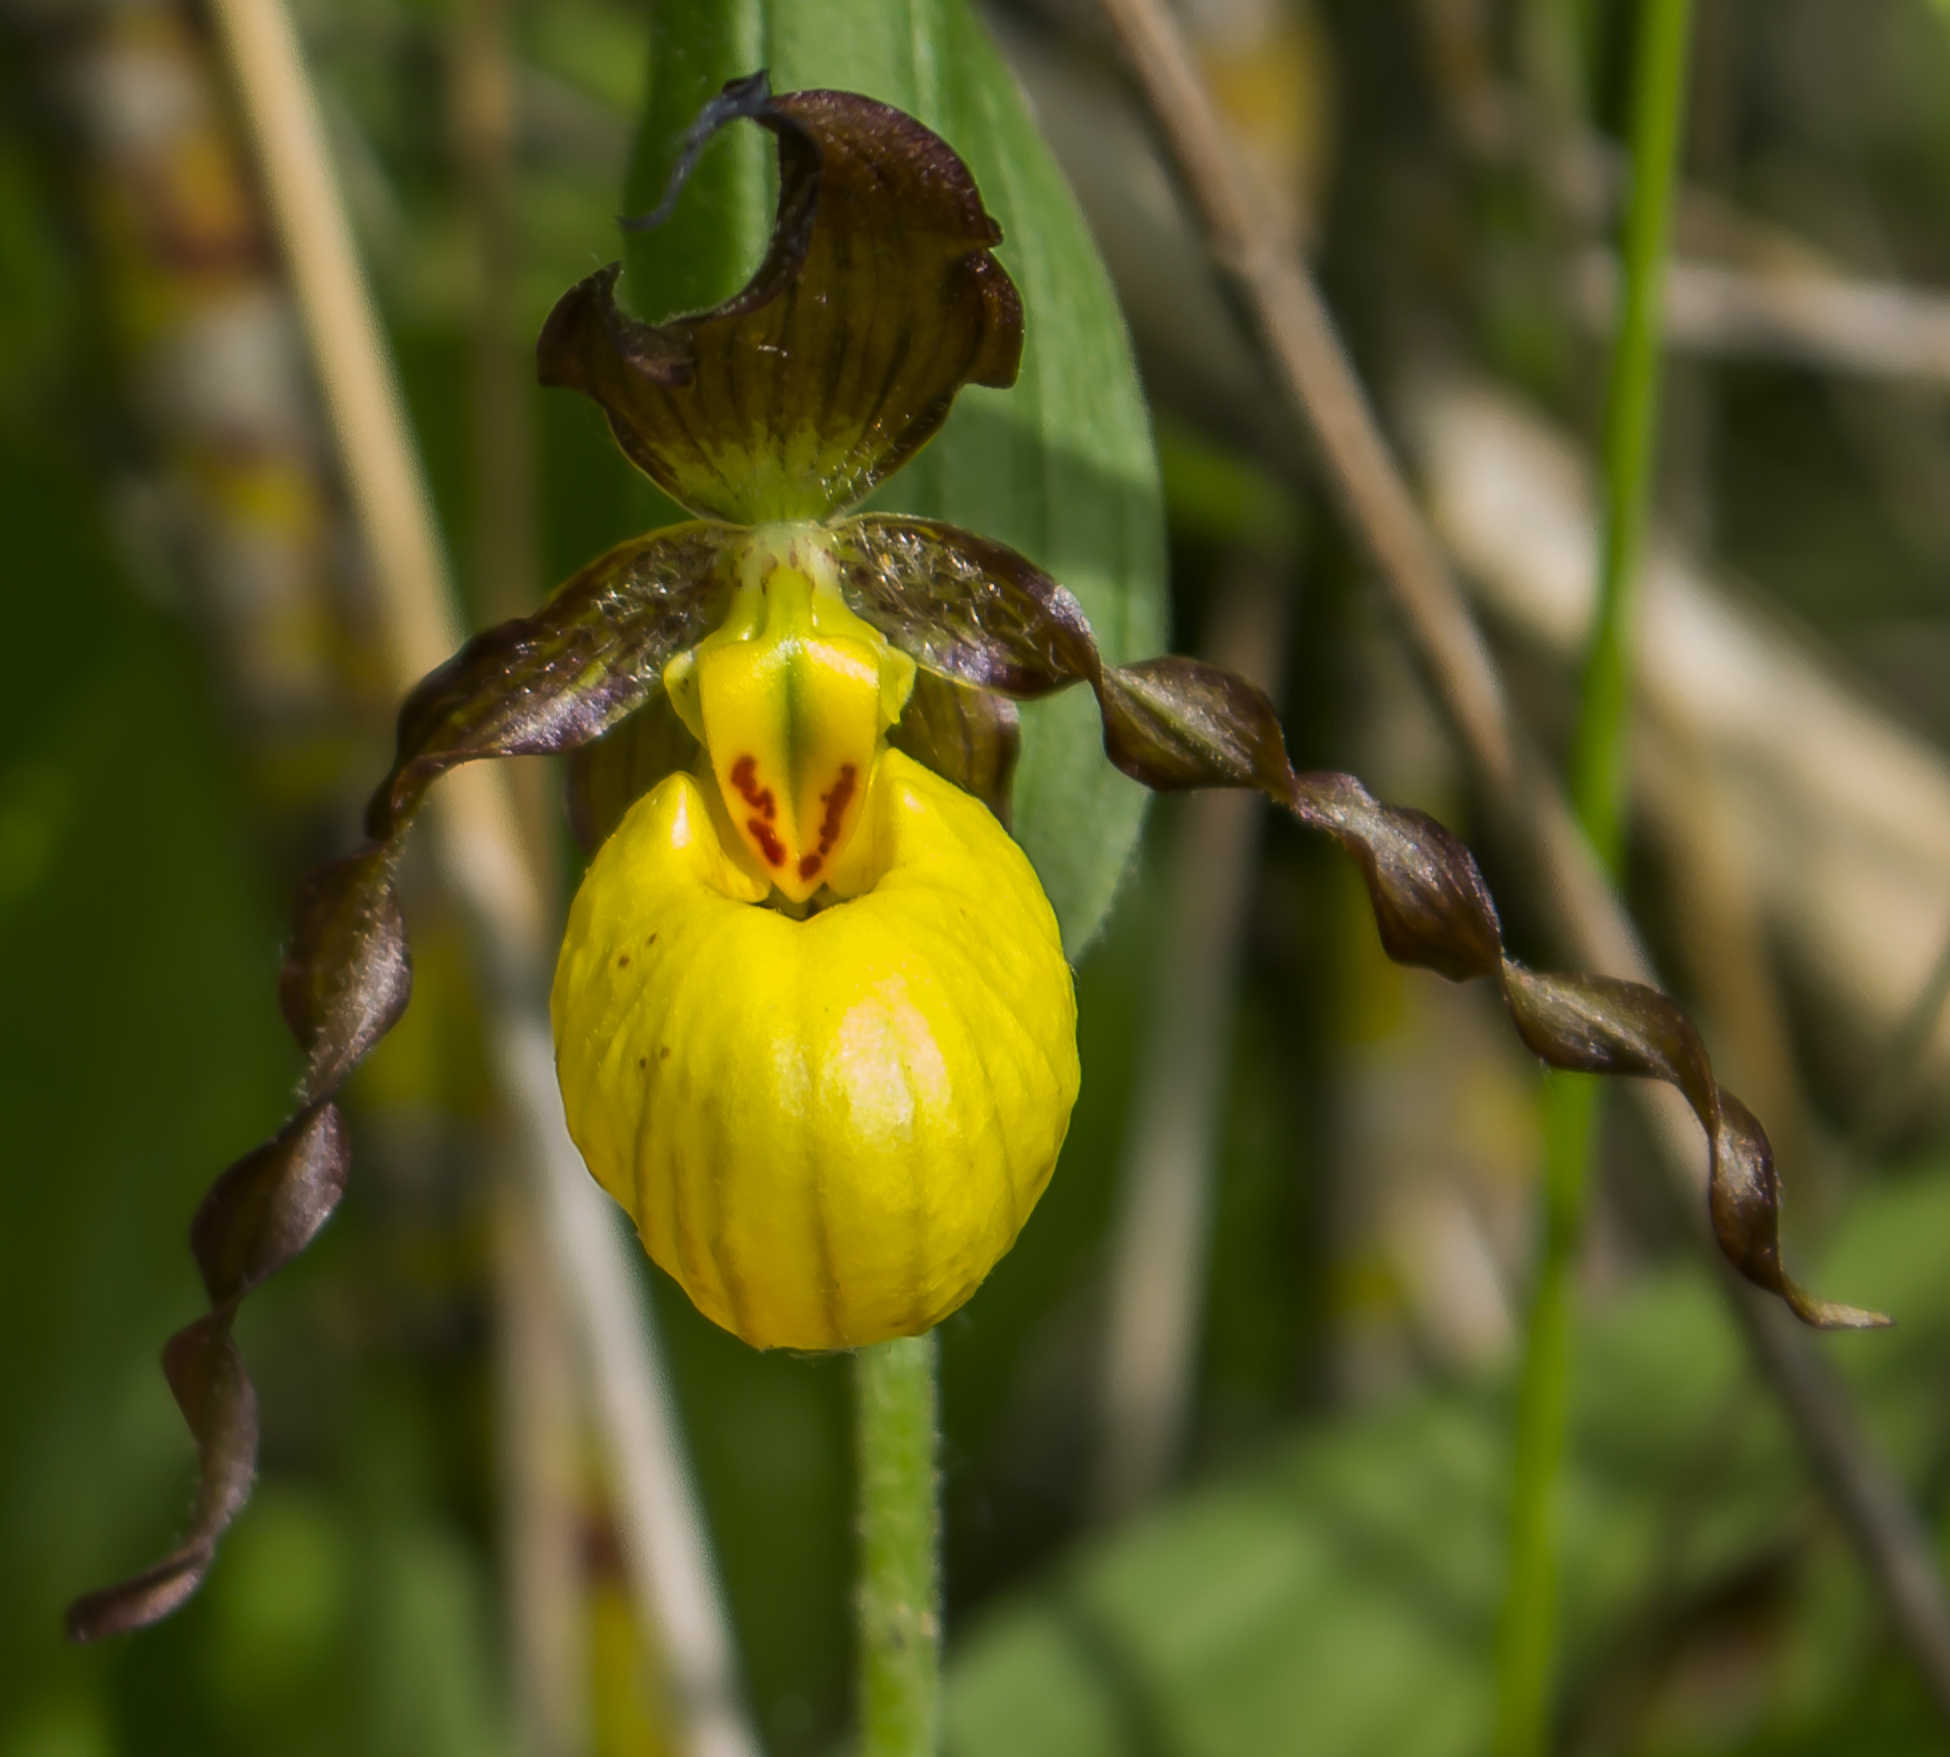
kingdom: Plantae
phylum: Tracheophyta
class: Liliopsida
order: Asparagales
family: Orchidaceae
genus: Cypripedium
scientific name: Cypripedium parviflorum
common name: American yellow lady's-slipper
